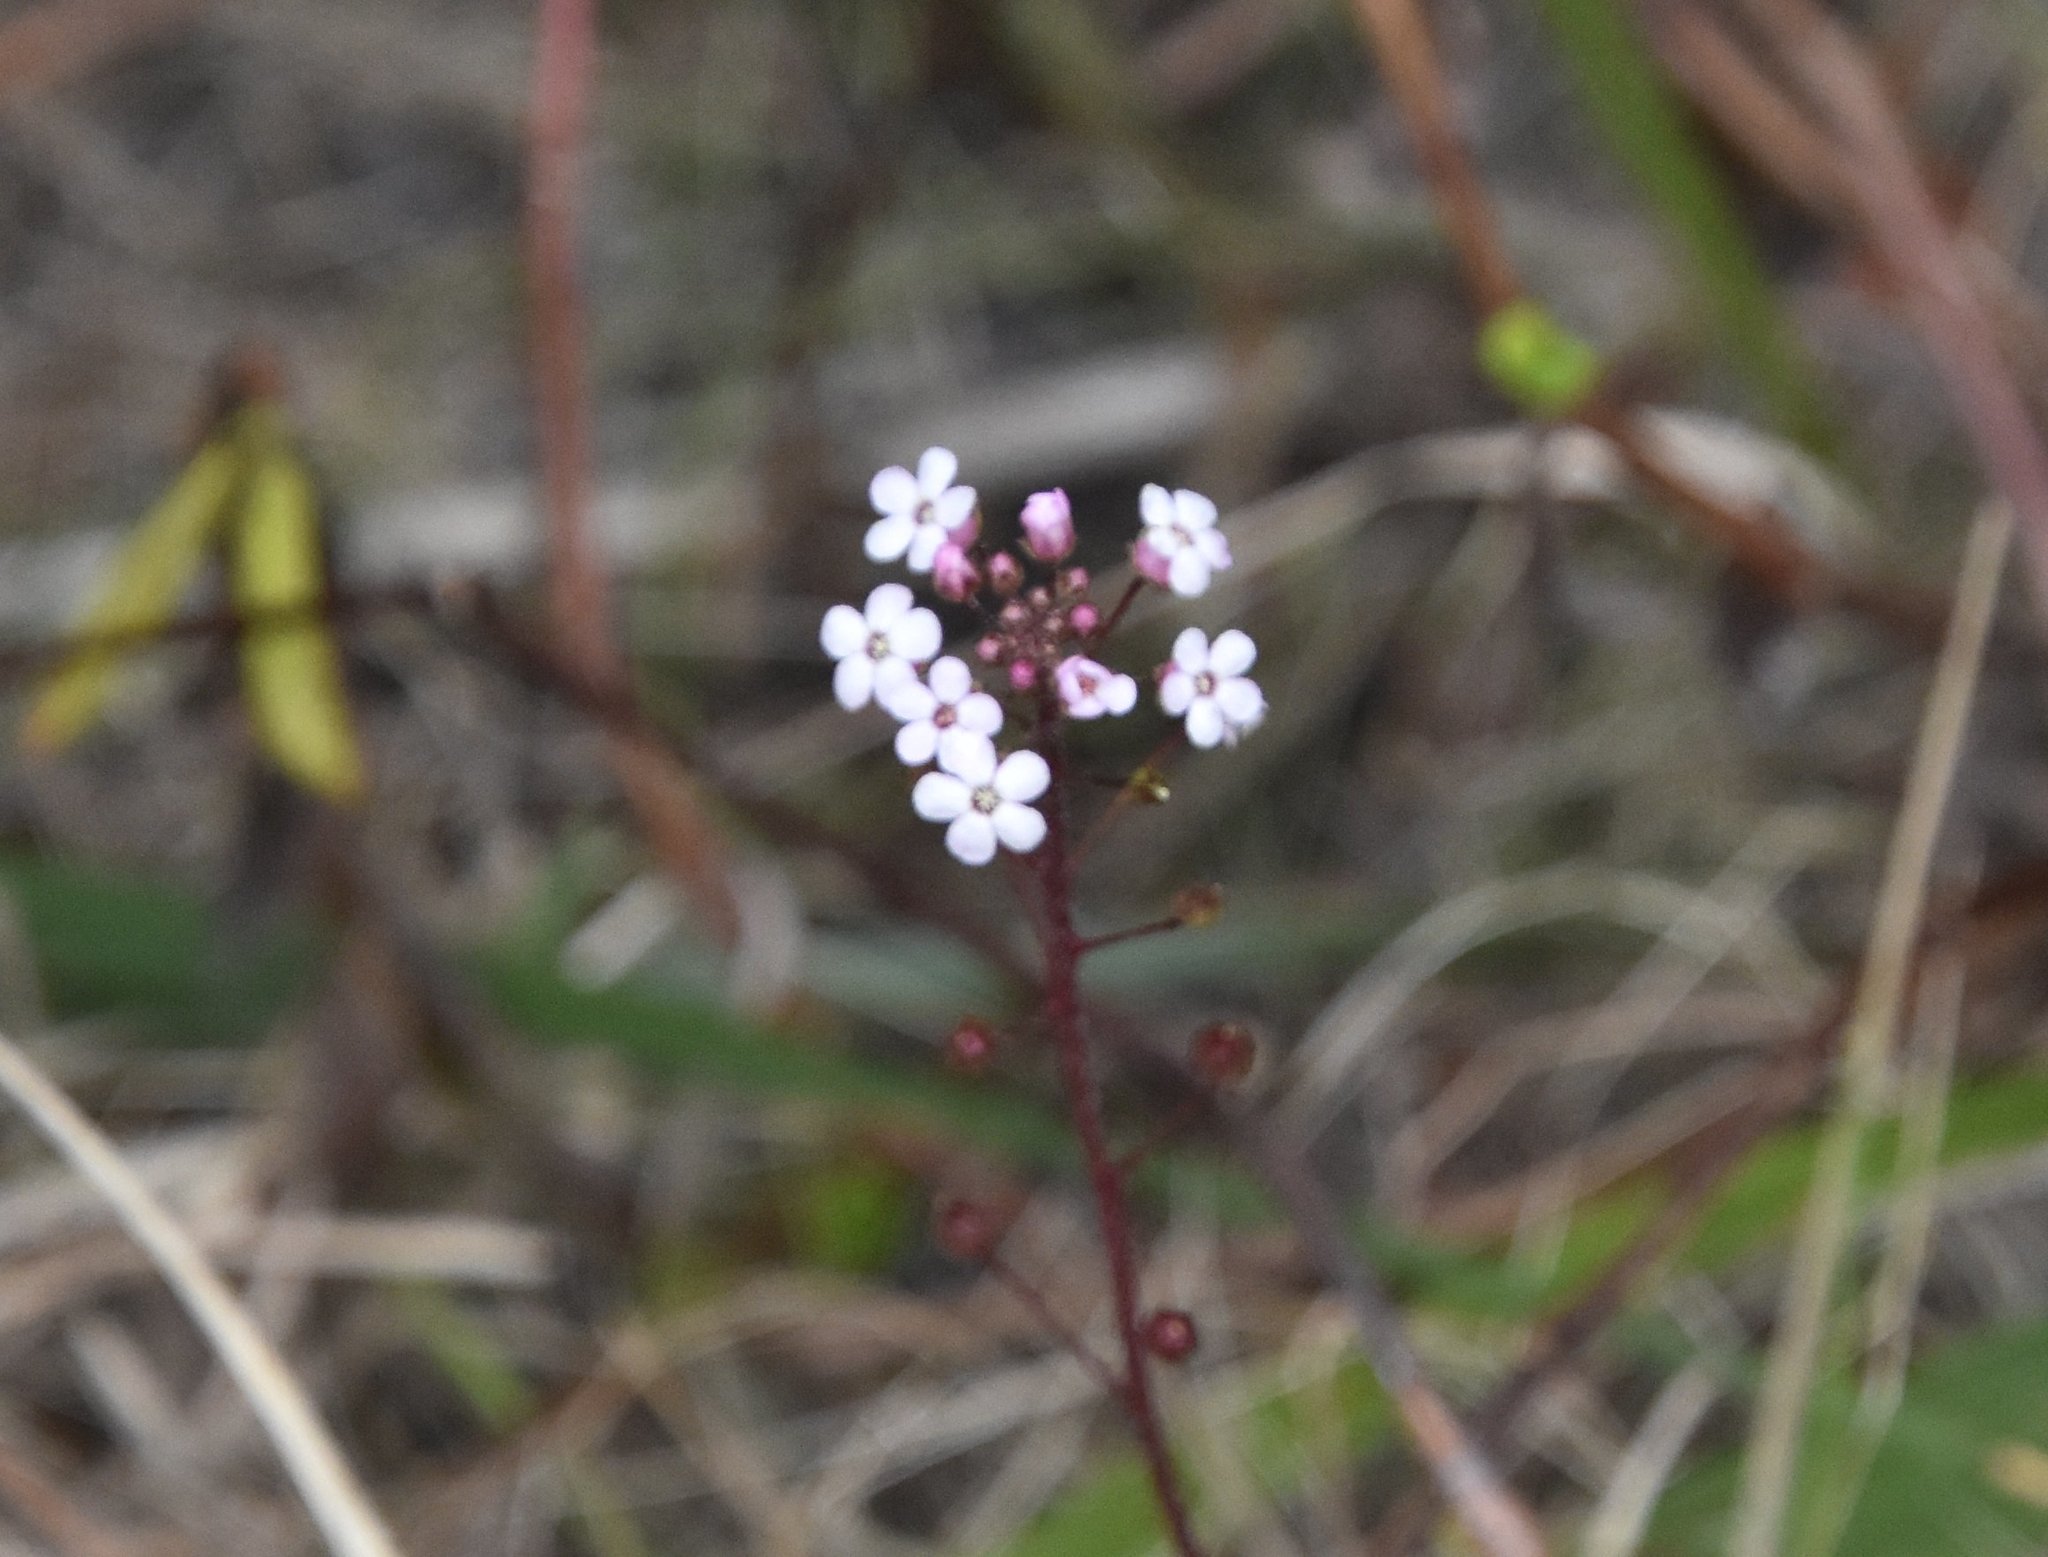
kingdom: Plantae
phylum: Tracheophyta
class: Magnoliopsida
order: Ericales
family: Primulaceae
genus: Samolus
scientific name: Samolus ebracteatus
